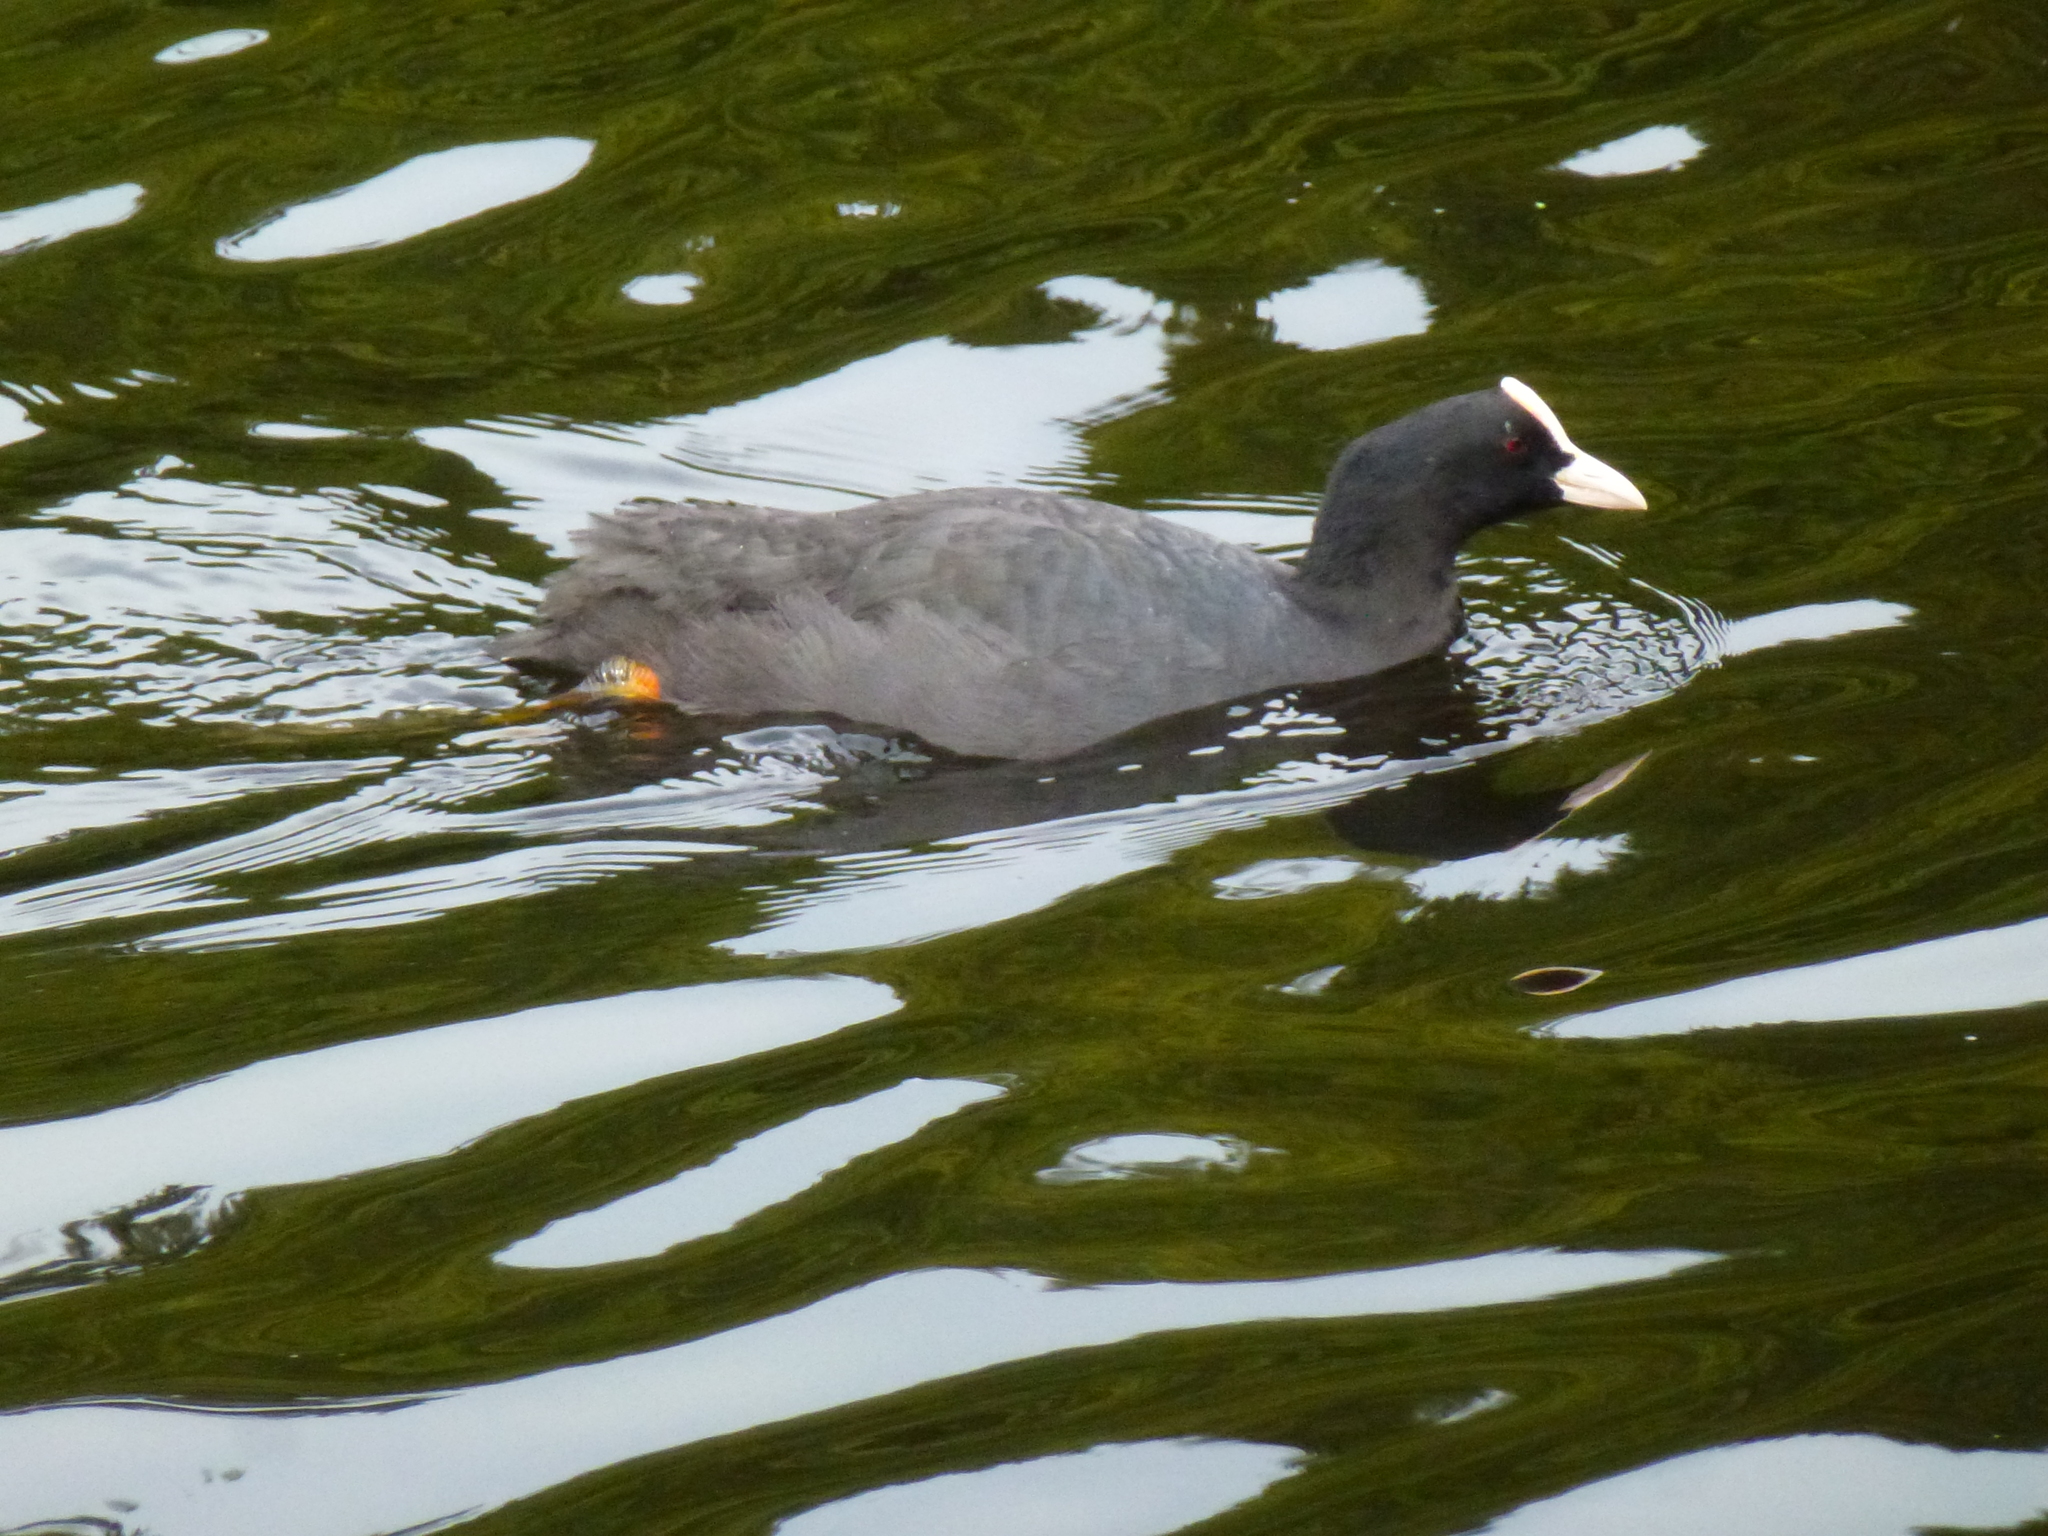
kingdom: Animalia
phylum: Chordata
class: Aves
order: Gruiformes
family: Rallidae
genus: Fulica
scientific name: Fulica atra
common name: Eurasian coot
